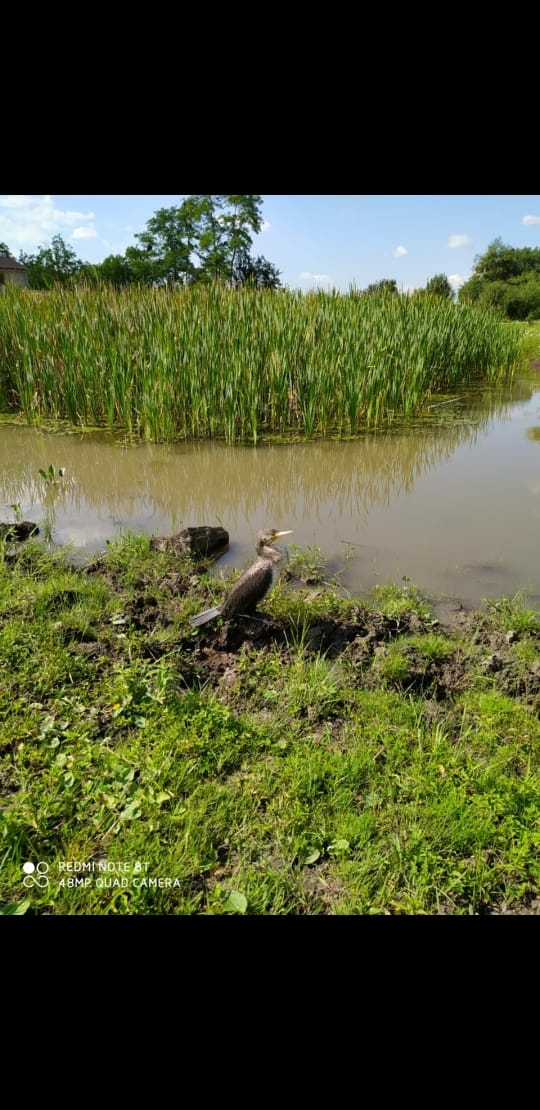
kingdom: Animalia
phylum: Chordata
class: Aves
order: Suliformes
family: Phalacrocoracidae
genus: Phalacrocorax
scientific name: Phalacrocorax carbo
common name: Great cormorant
